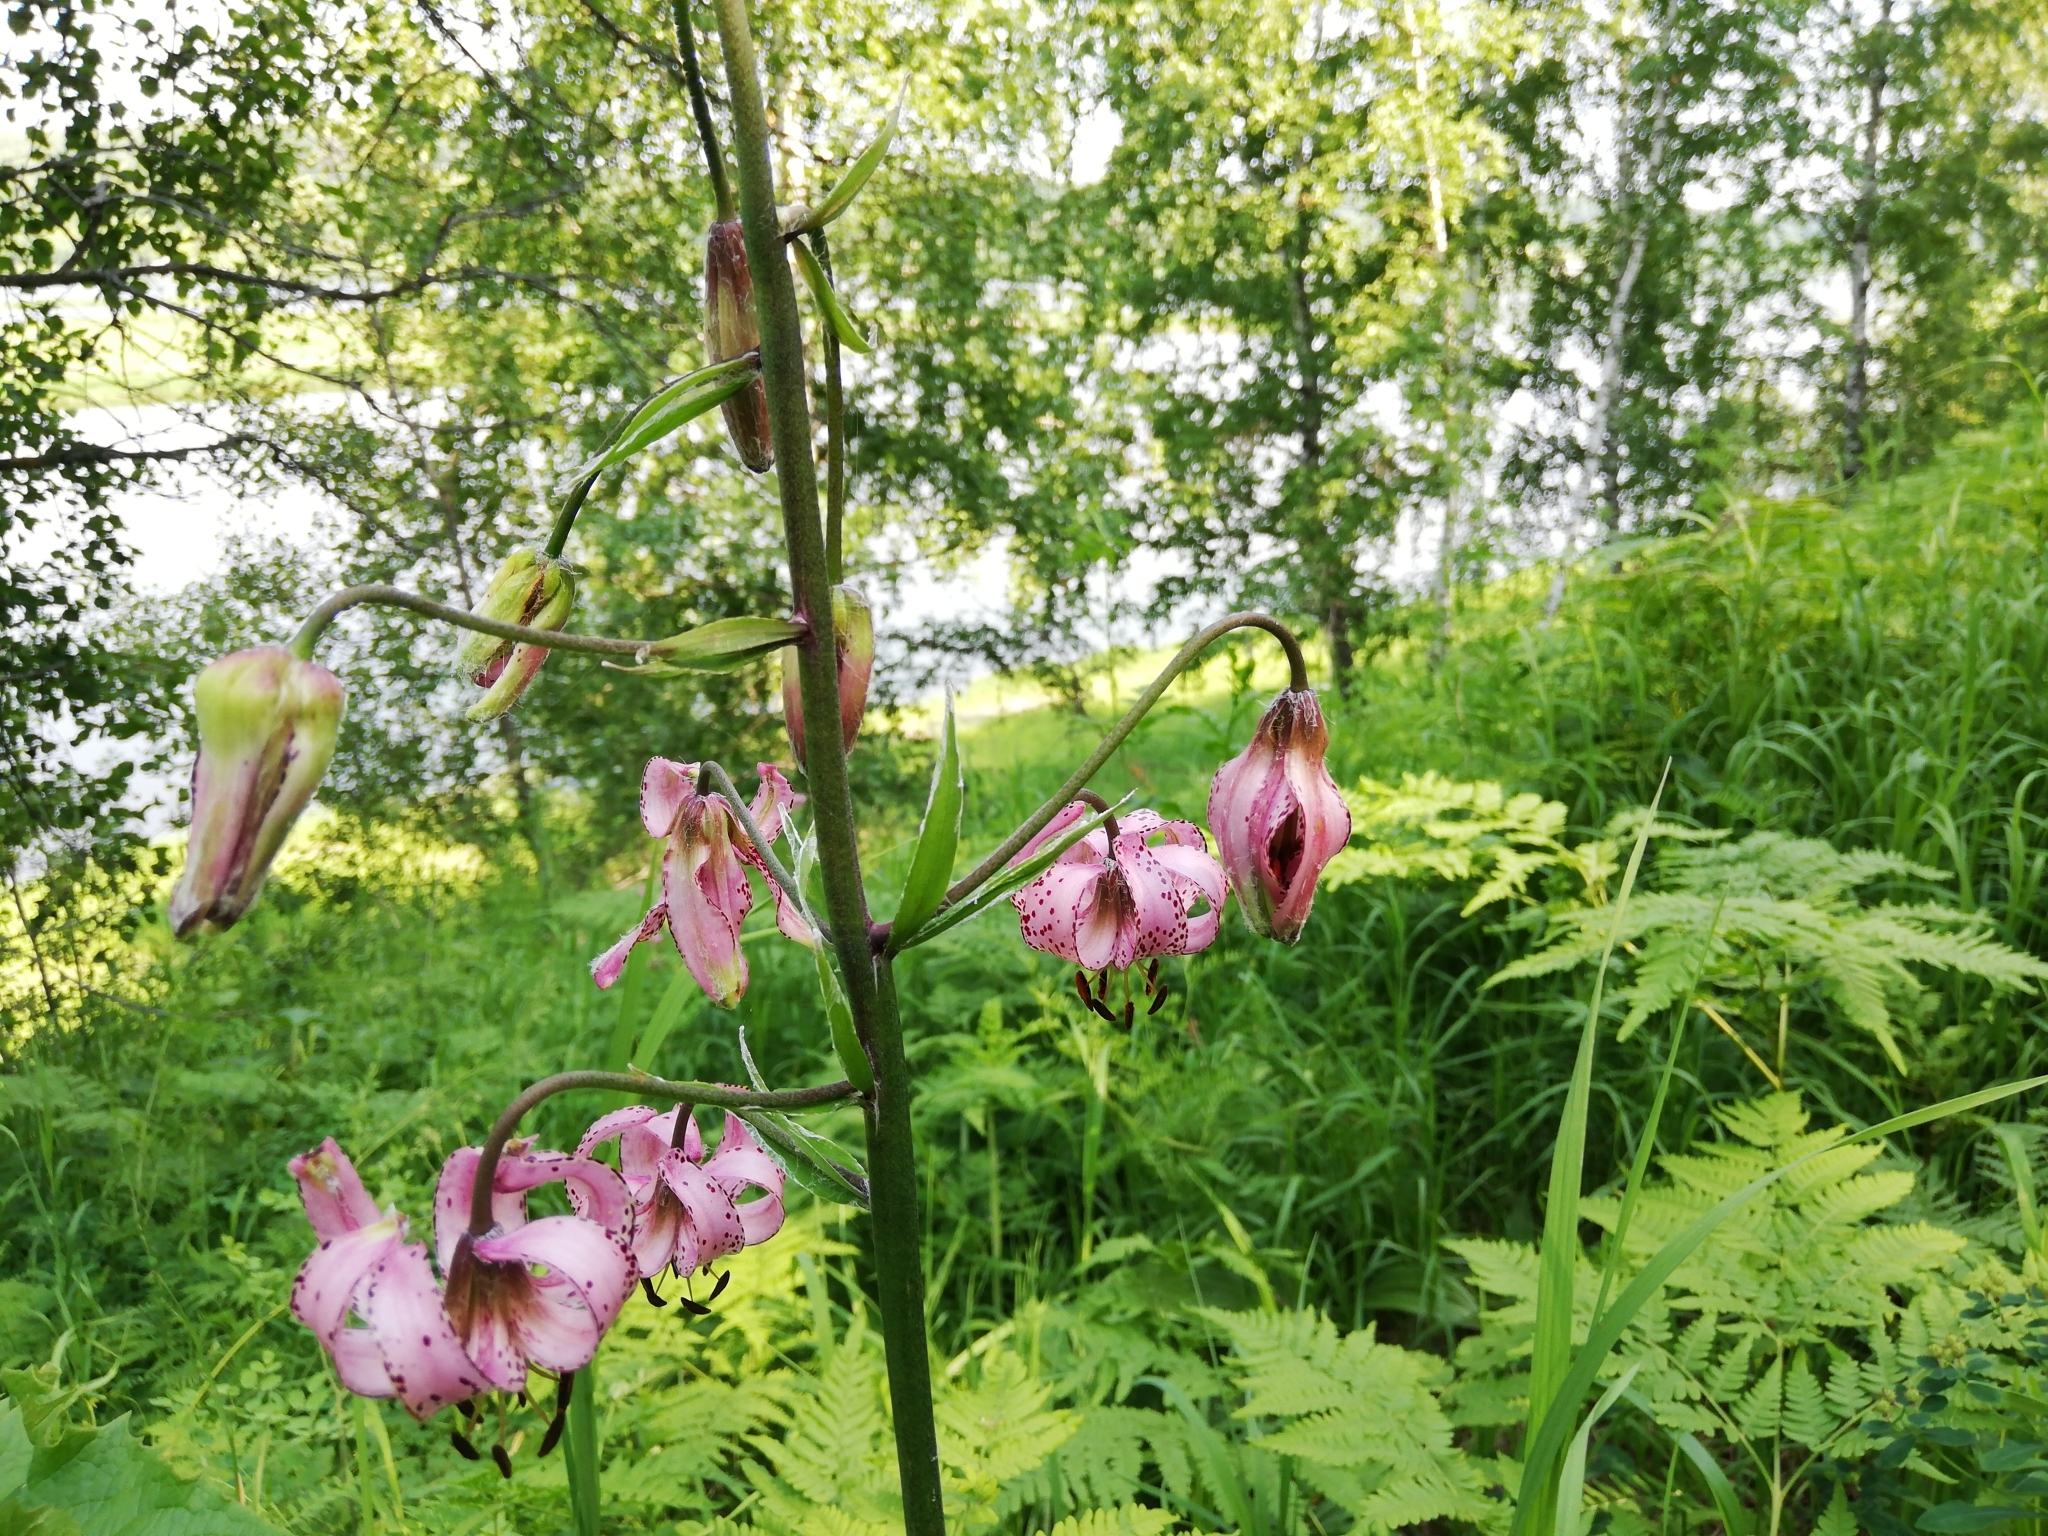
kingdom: Plantae
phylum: Tracheophyta
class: Liliopsida
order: Liliales
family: Liliaceae
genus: Lilium
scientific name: Lilium martagon
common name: Martagon lily
